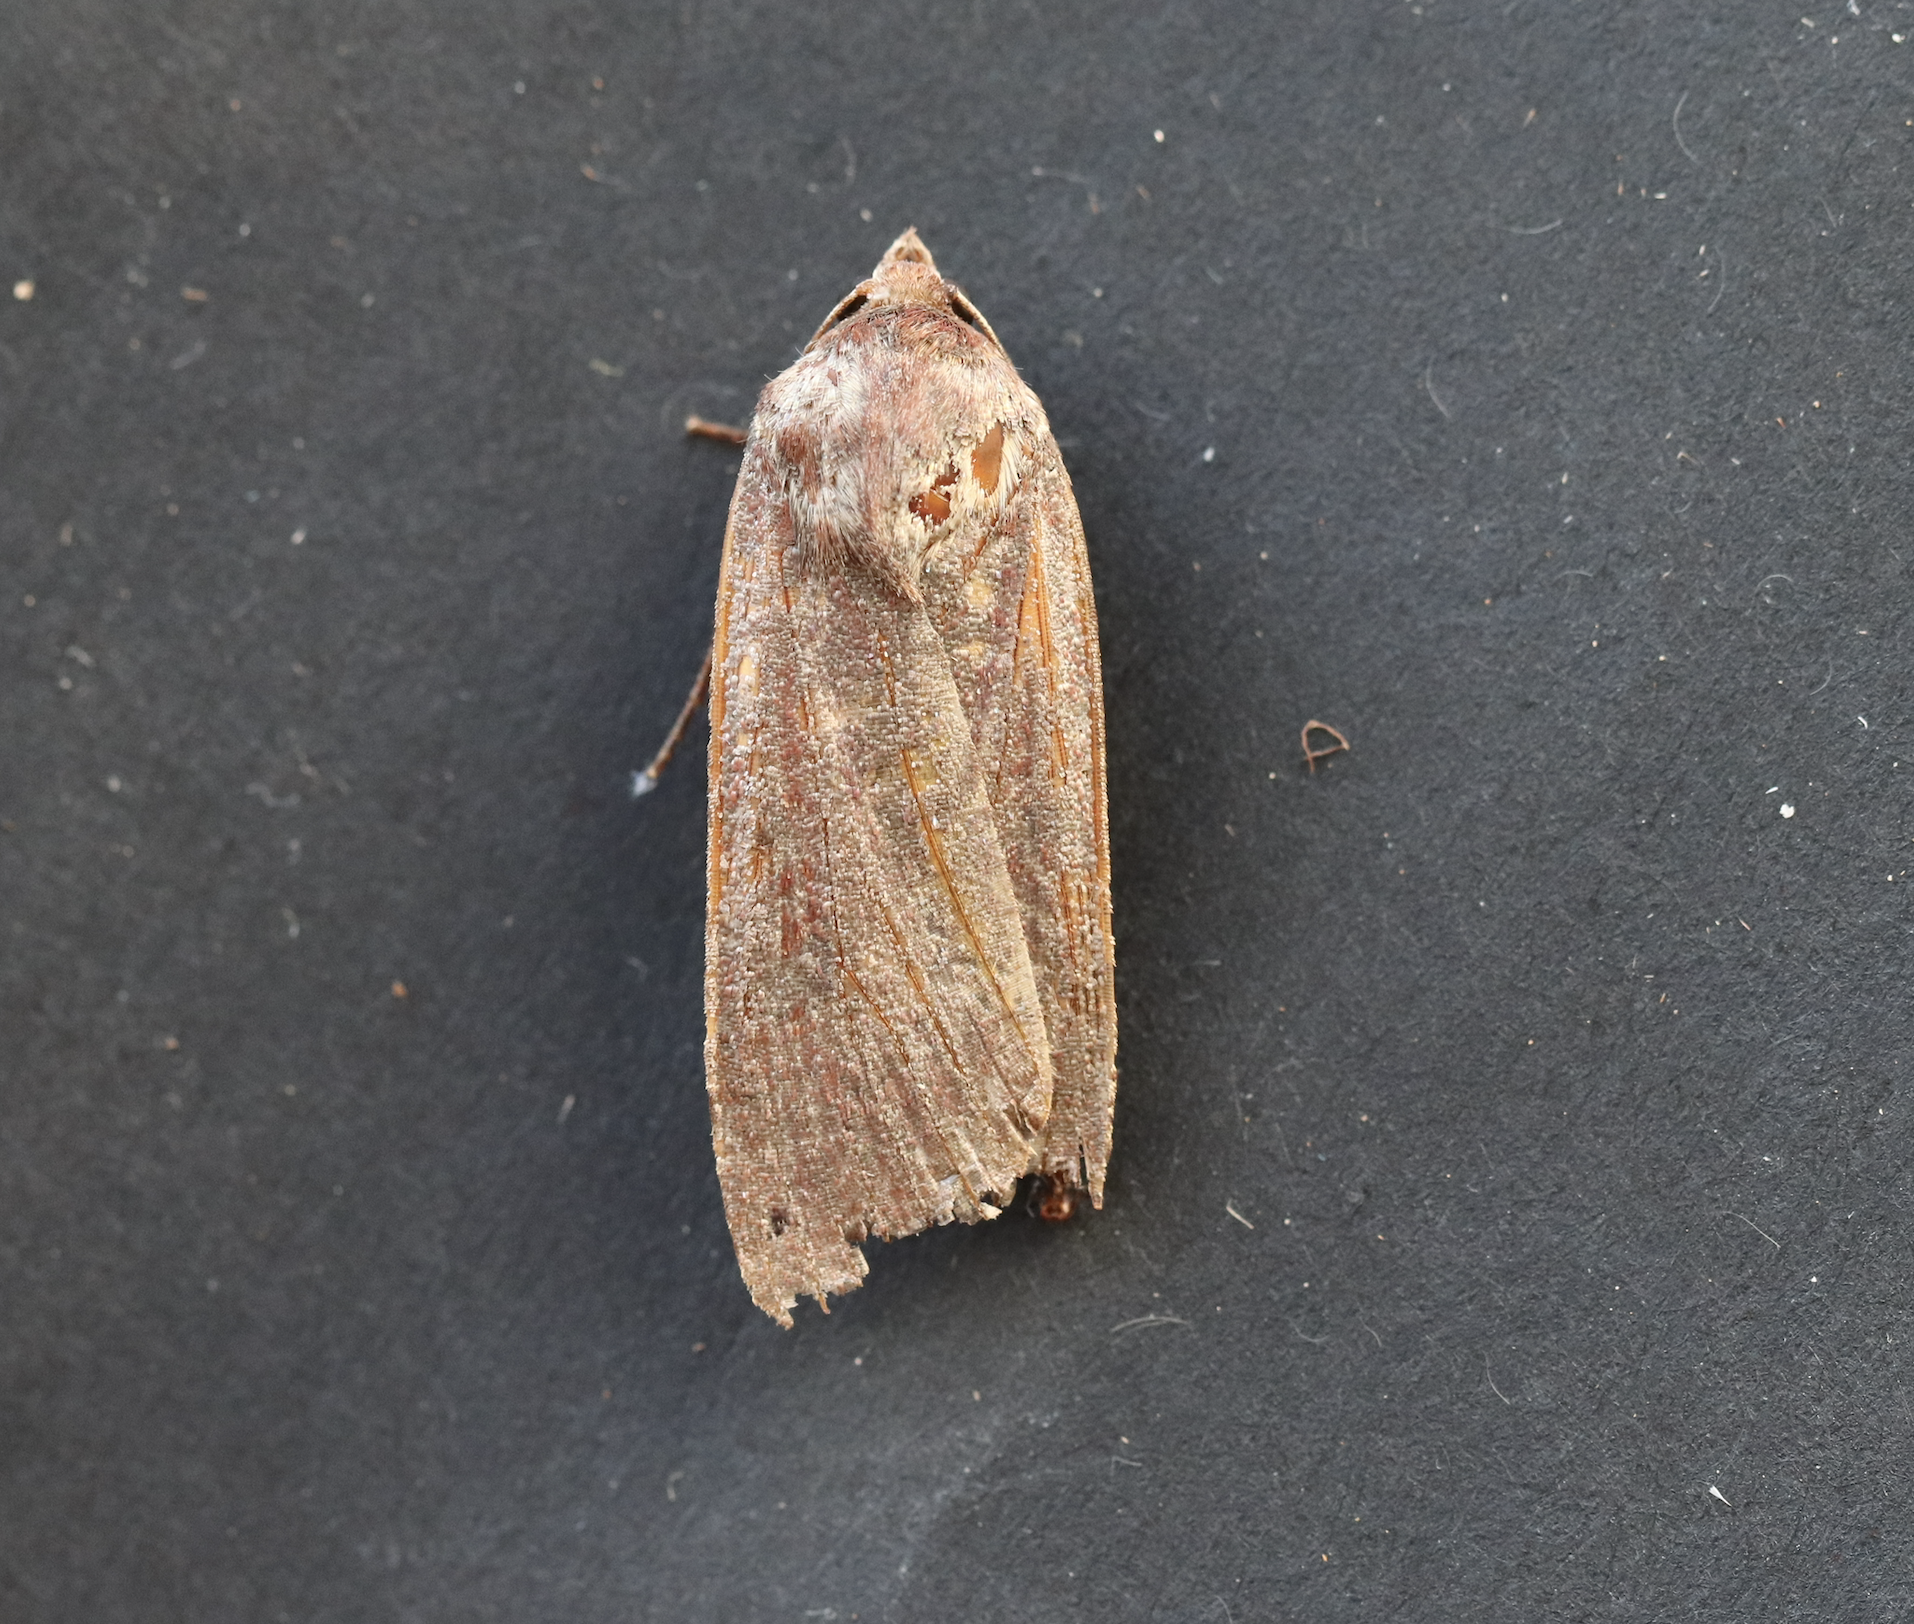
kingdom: Animalia
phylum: Arthropoda
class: Insecta
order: Lepidoptera
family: Noctuidae
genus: Noctua
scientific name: Noctua pronuba
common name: Large yellow underwing
